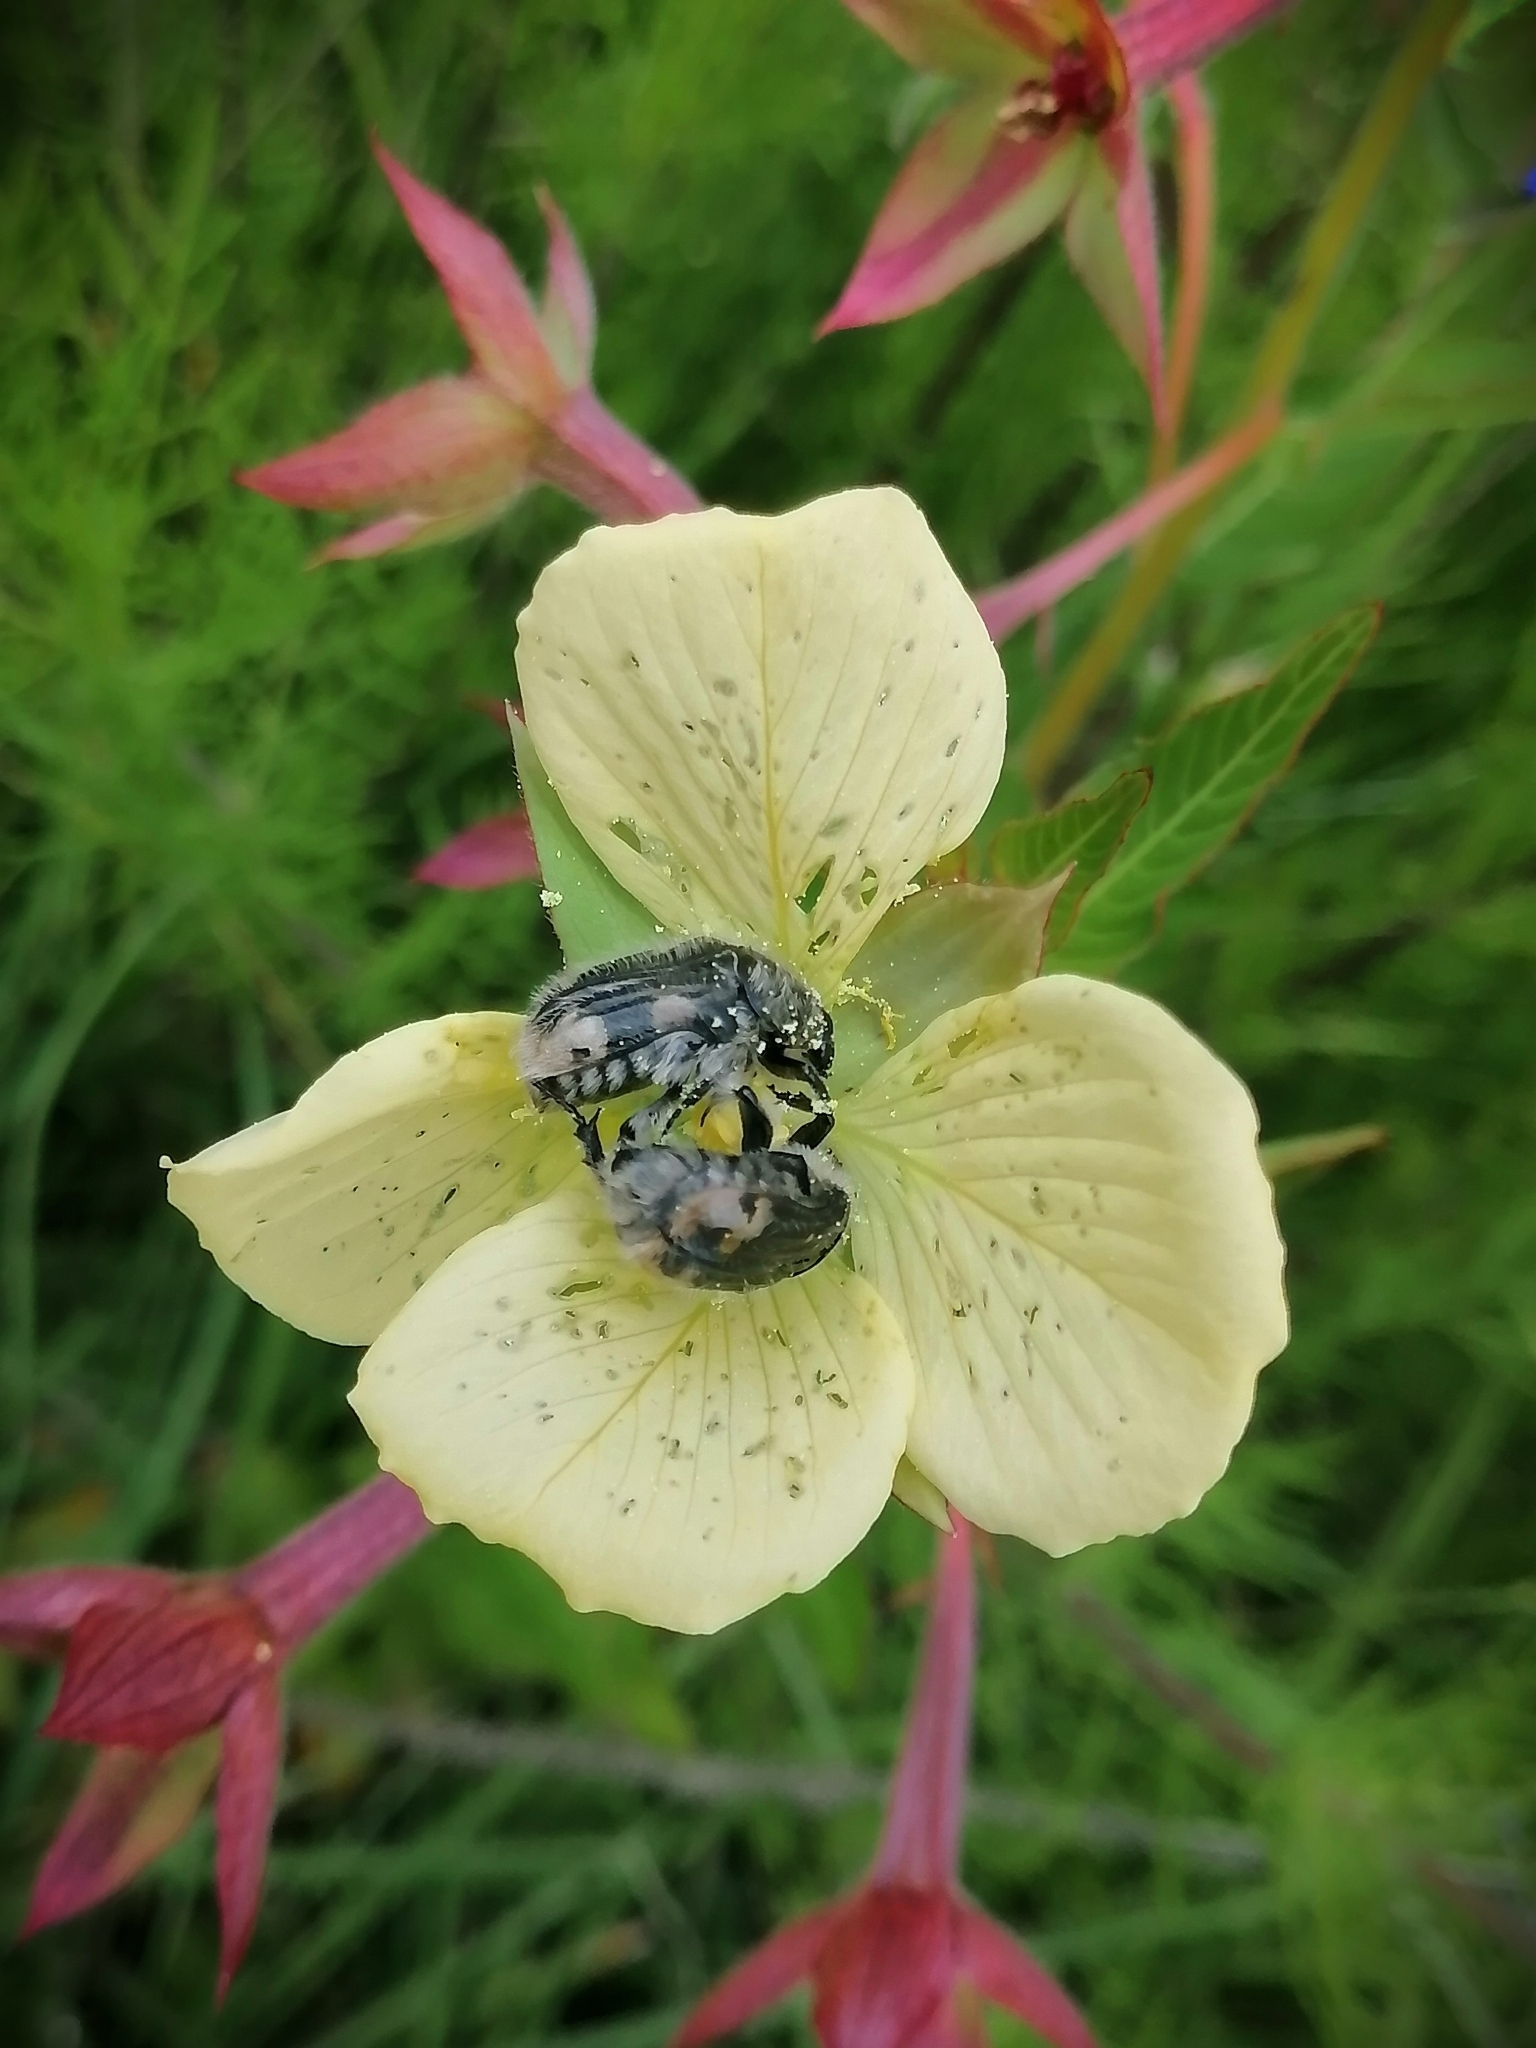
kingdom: Animalia
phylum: Arthropoda
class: Insecta
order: Coleoptera
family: Scarabaeidae
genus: Euphoria
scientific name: Euphoria basalis
